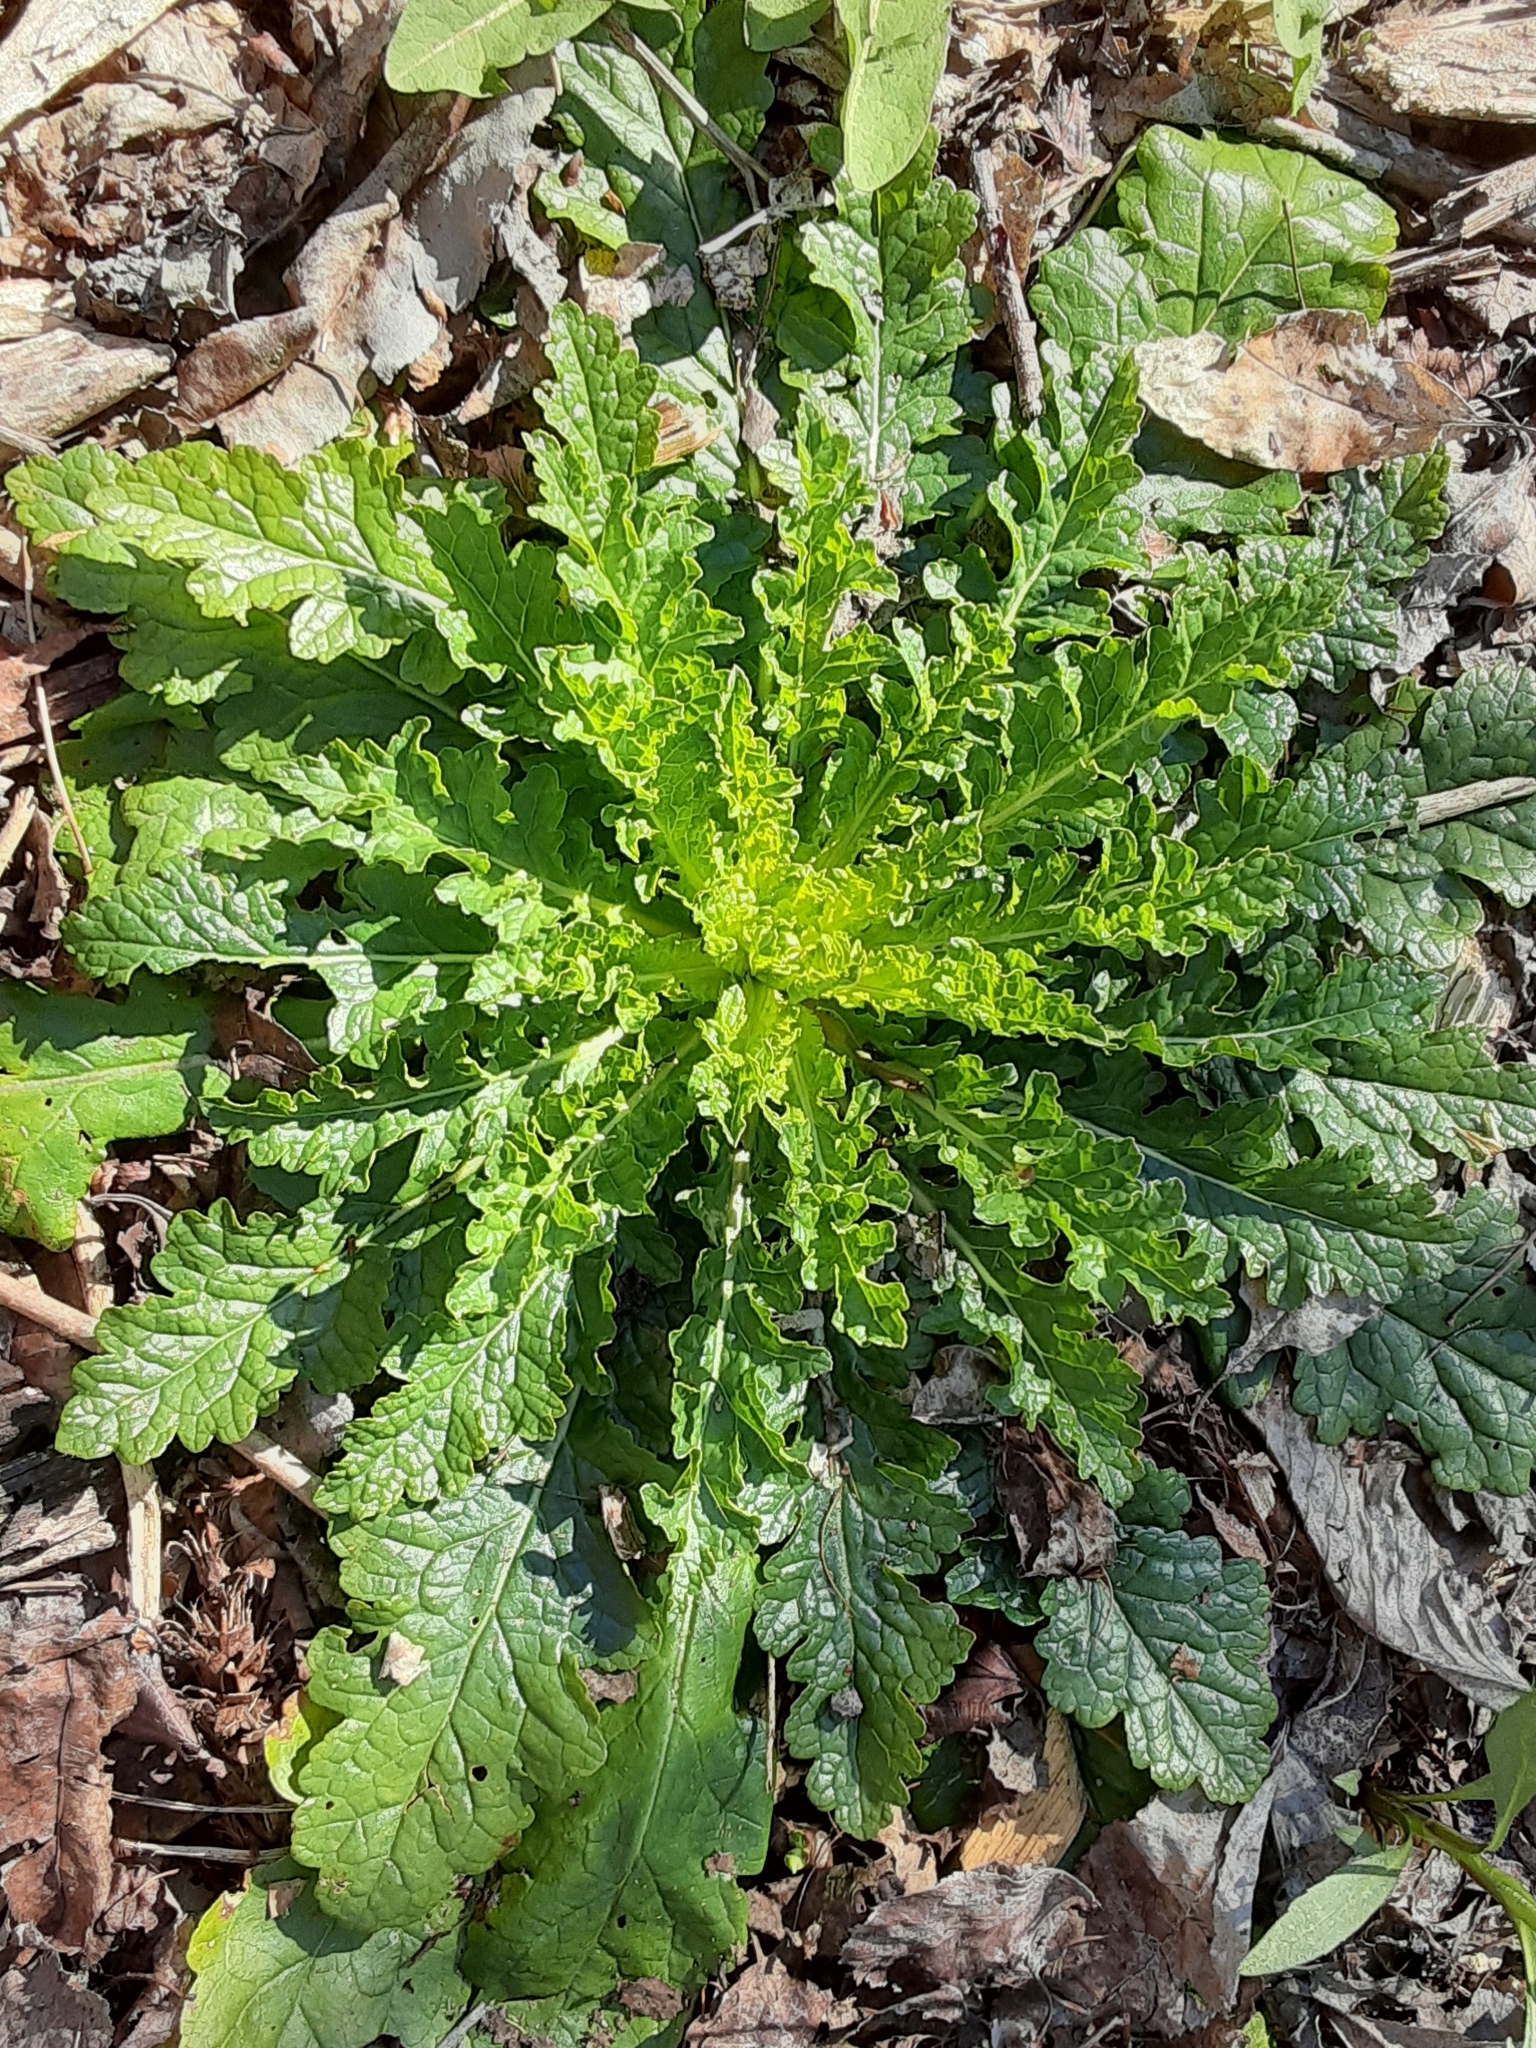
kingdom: Plantae
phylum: Tracheophyta
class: Magnoliopsida
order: Lamiales
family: Scrophulariaceae
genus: Verbascum
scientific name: Verbascum blattaria
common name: Moth mullein
